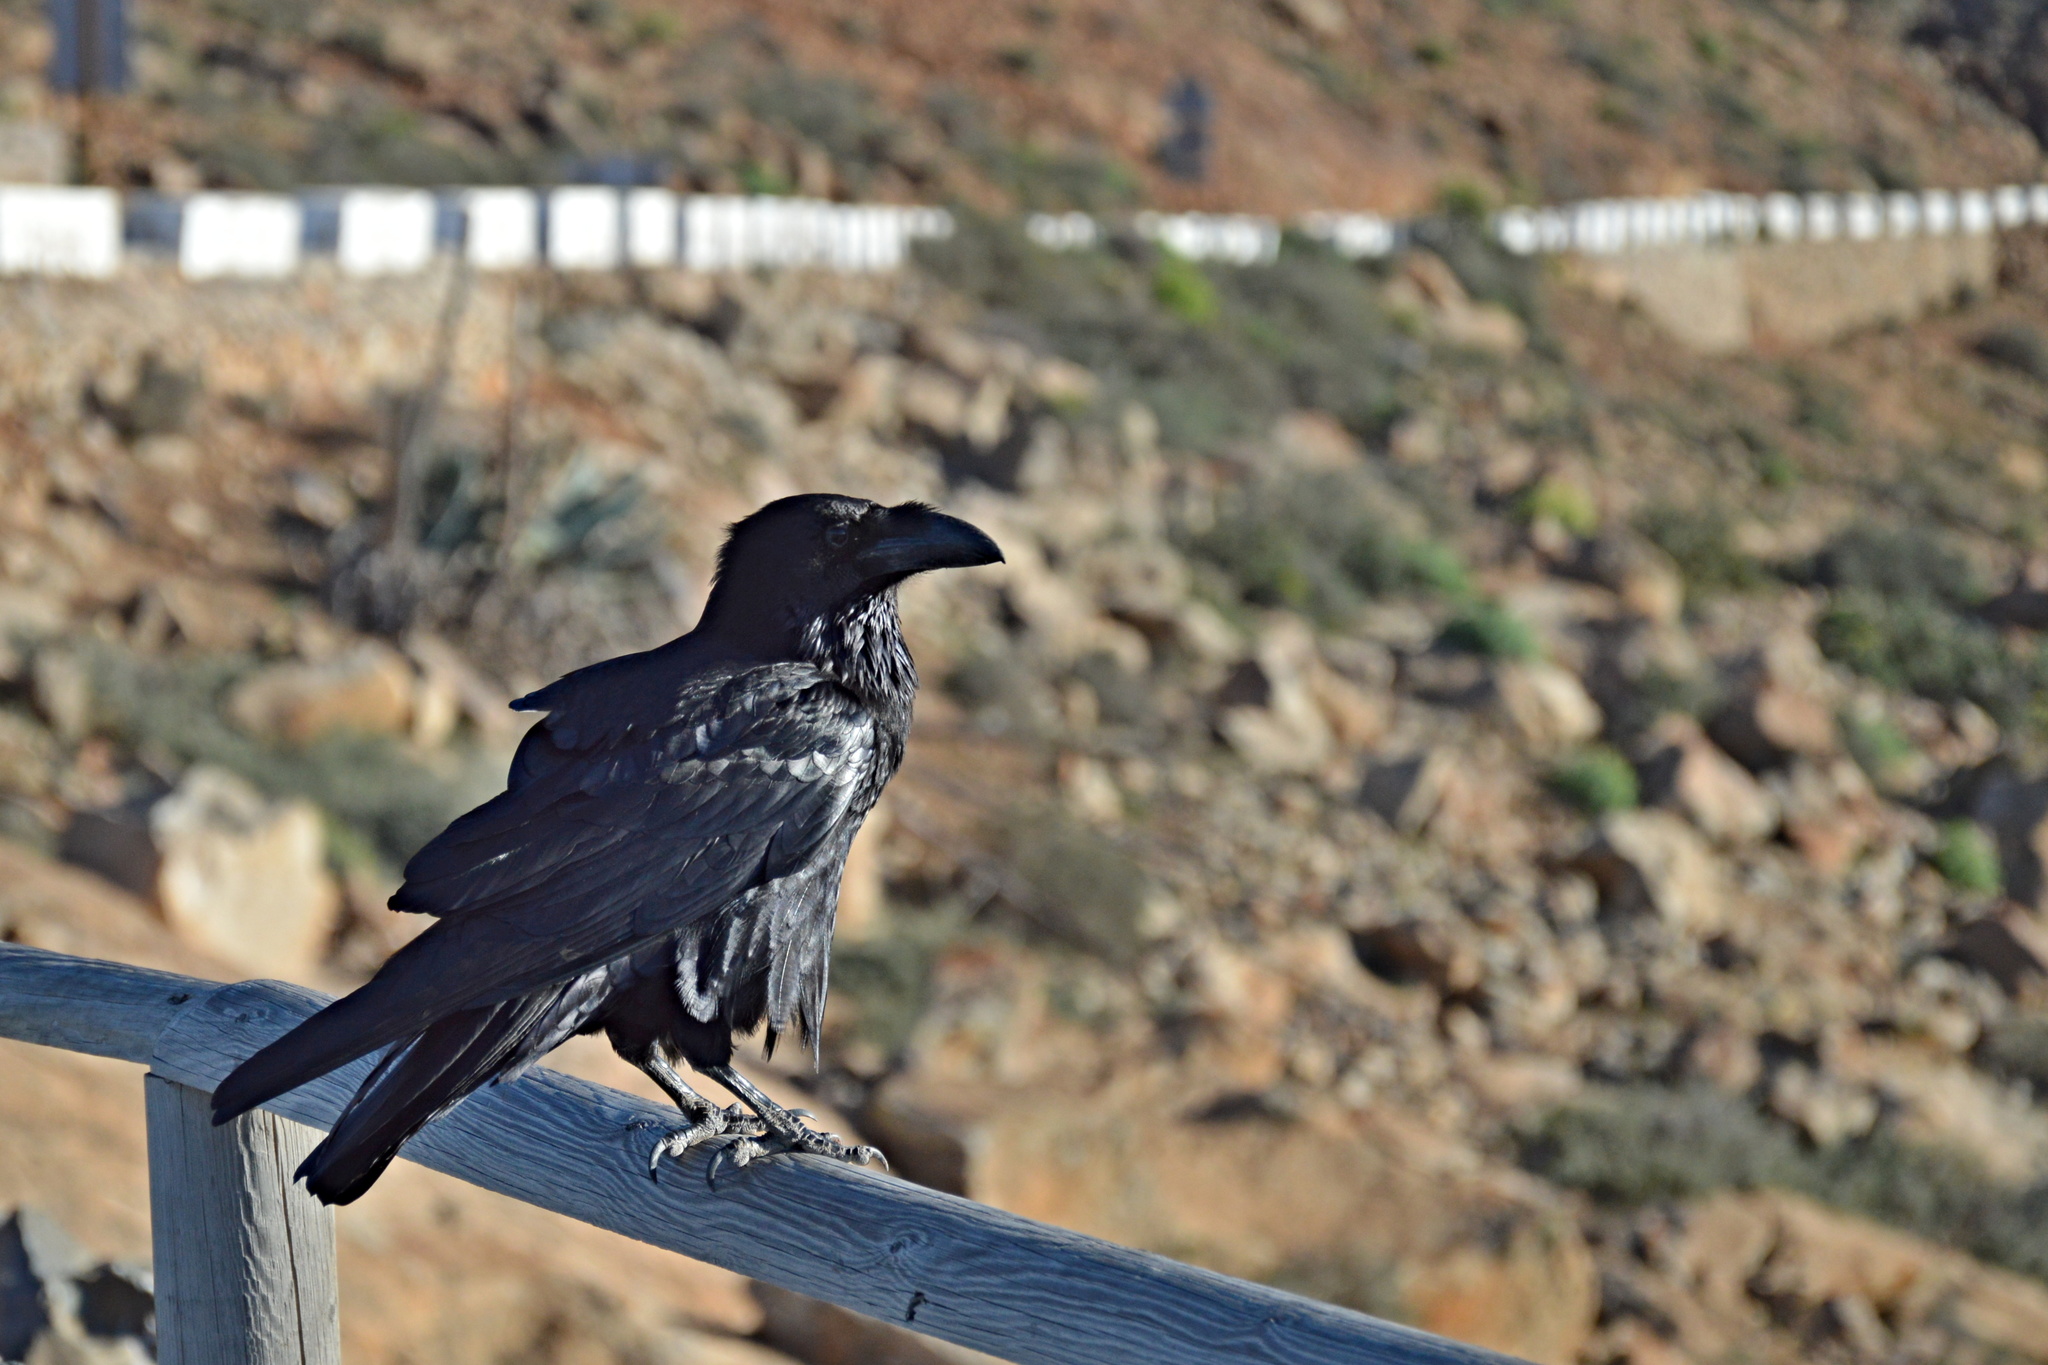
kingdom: Animalia
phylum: Chordata
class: Aves
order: Passeriformes
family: Corvidae
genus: Corvus
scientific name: Corvus corax
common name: Common raven
